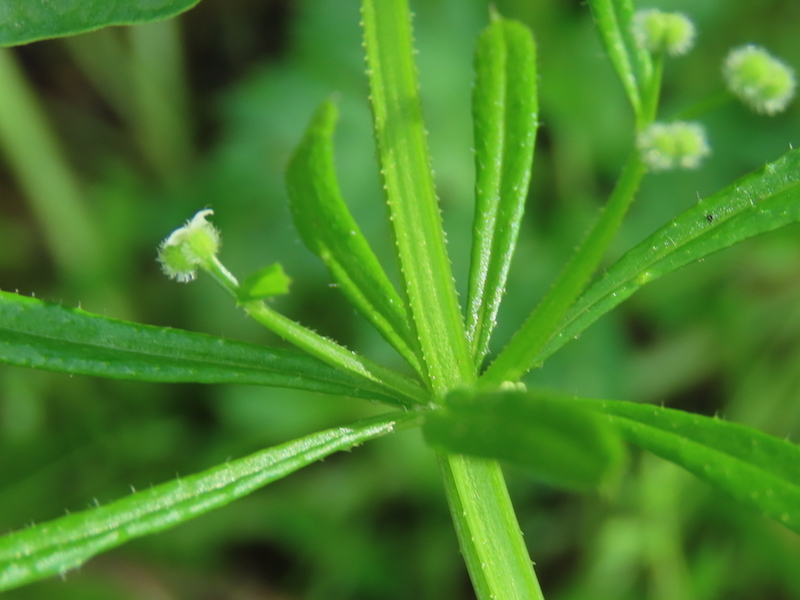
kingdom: Plantae
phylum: Tracheophyta
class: Magnoliopsida
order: Gentianales
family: Rubiaceae
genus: Galium
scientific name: Galium aparine
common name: Cleavers
